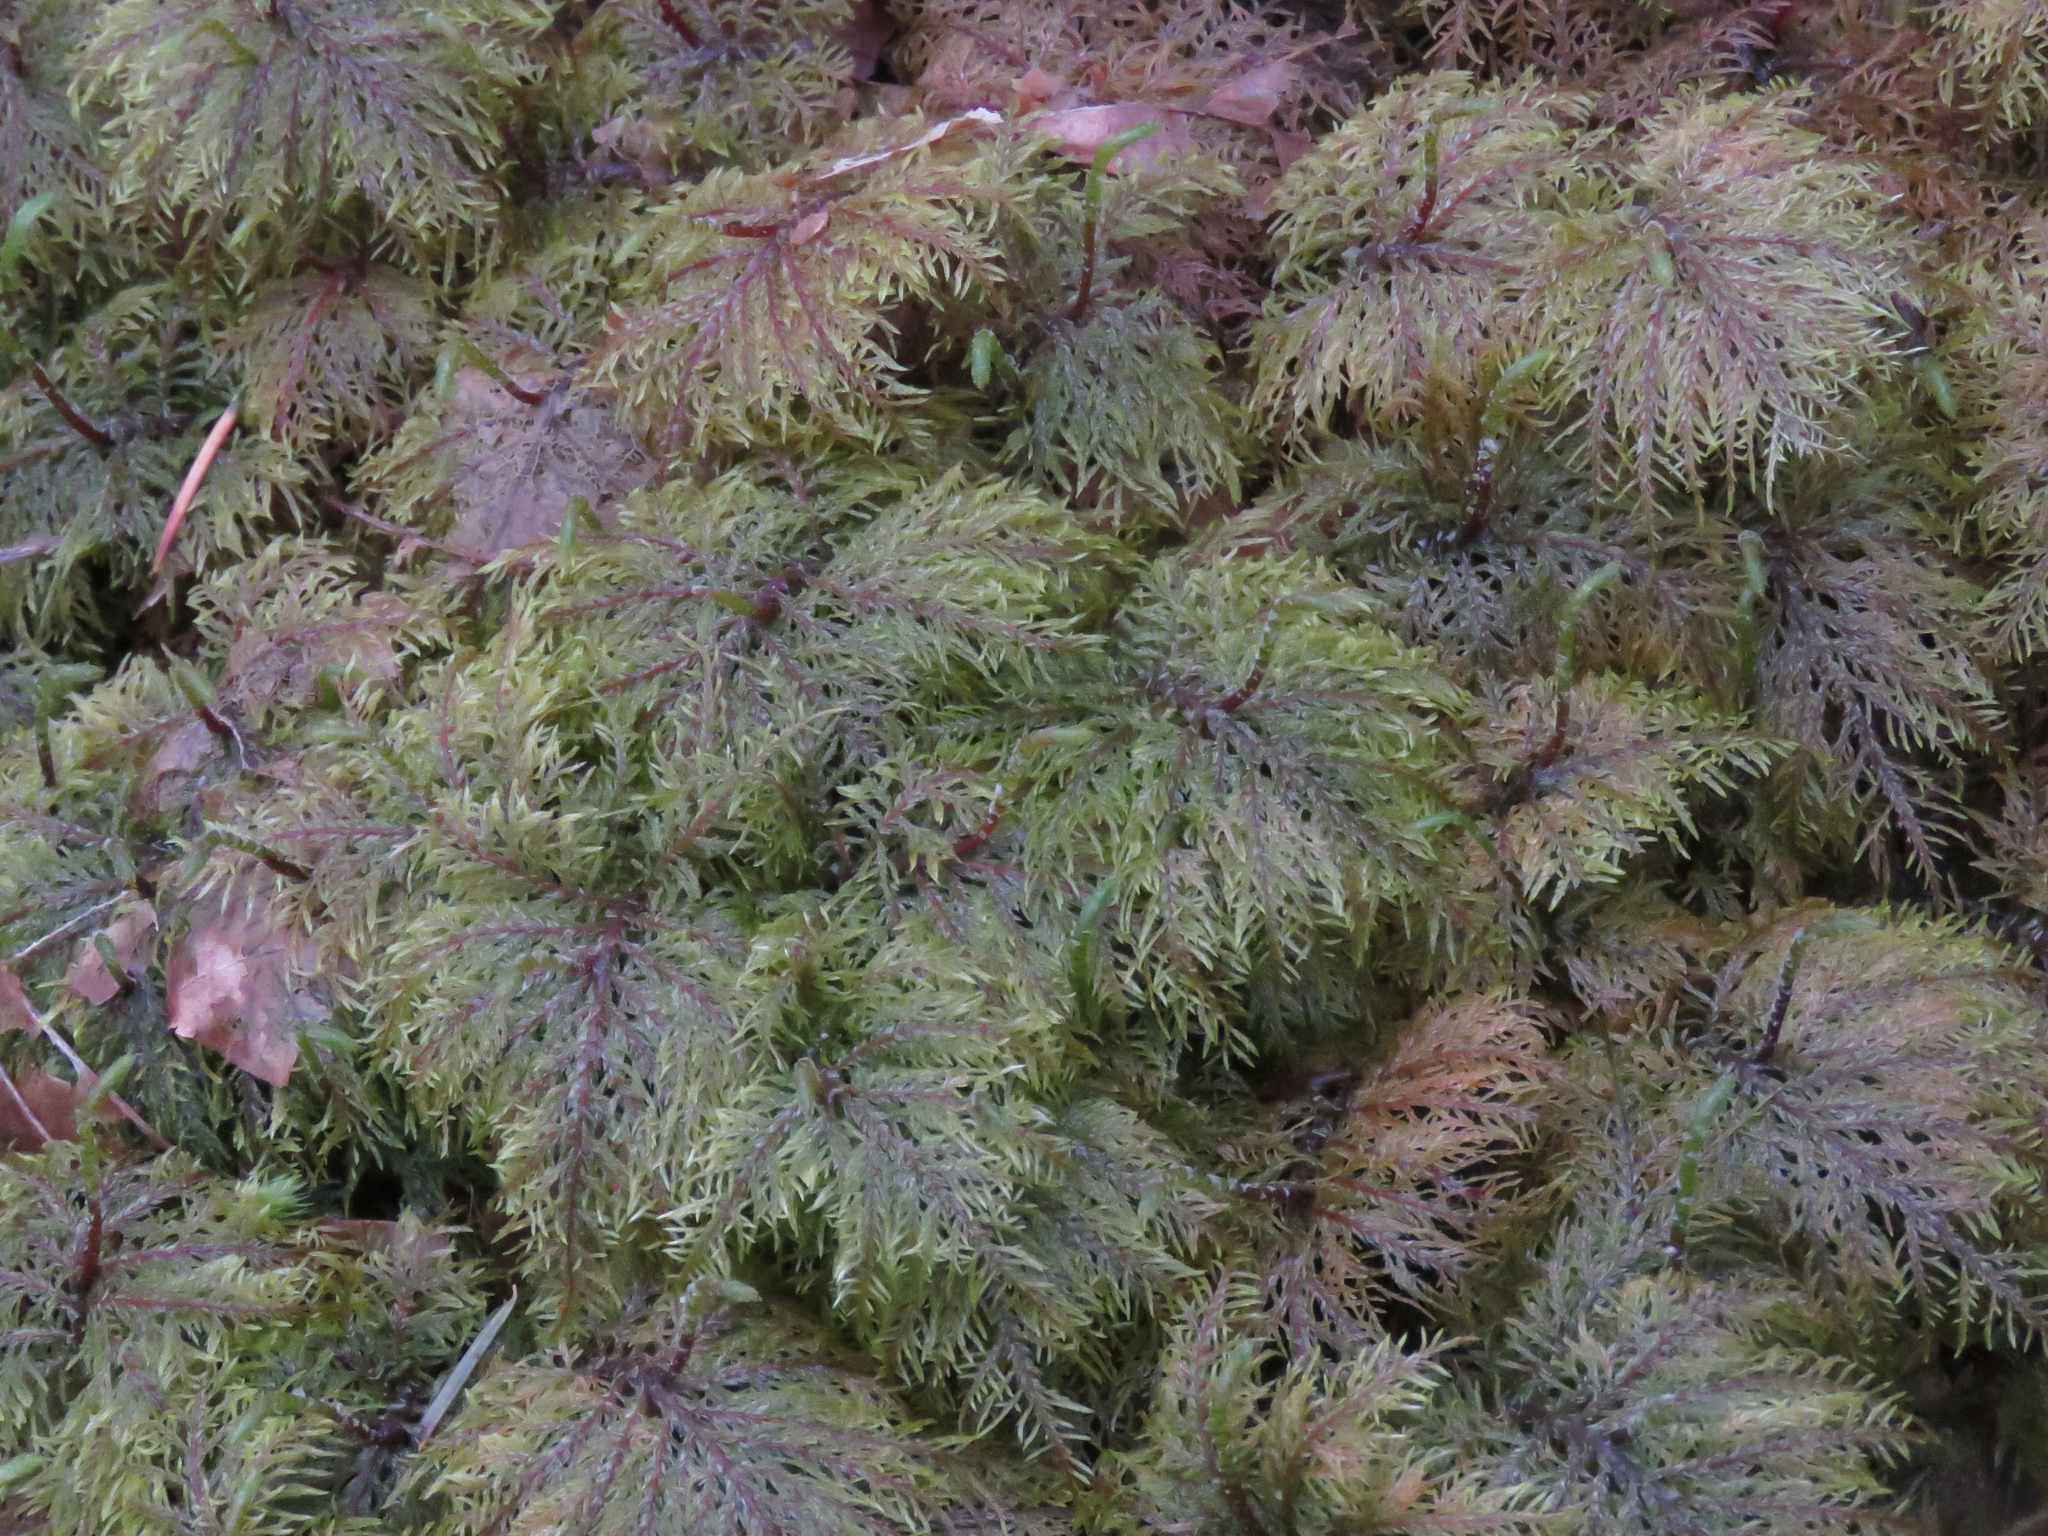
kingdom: Plantae
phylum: Bryophyta
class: Bryopsida
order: Hypnales
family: Hylocomiaceae
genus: Hylocomium
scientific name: Hylocomium splendens
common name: Stairstep moss
